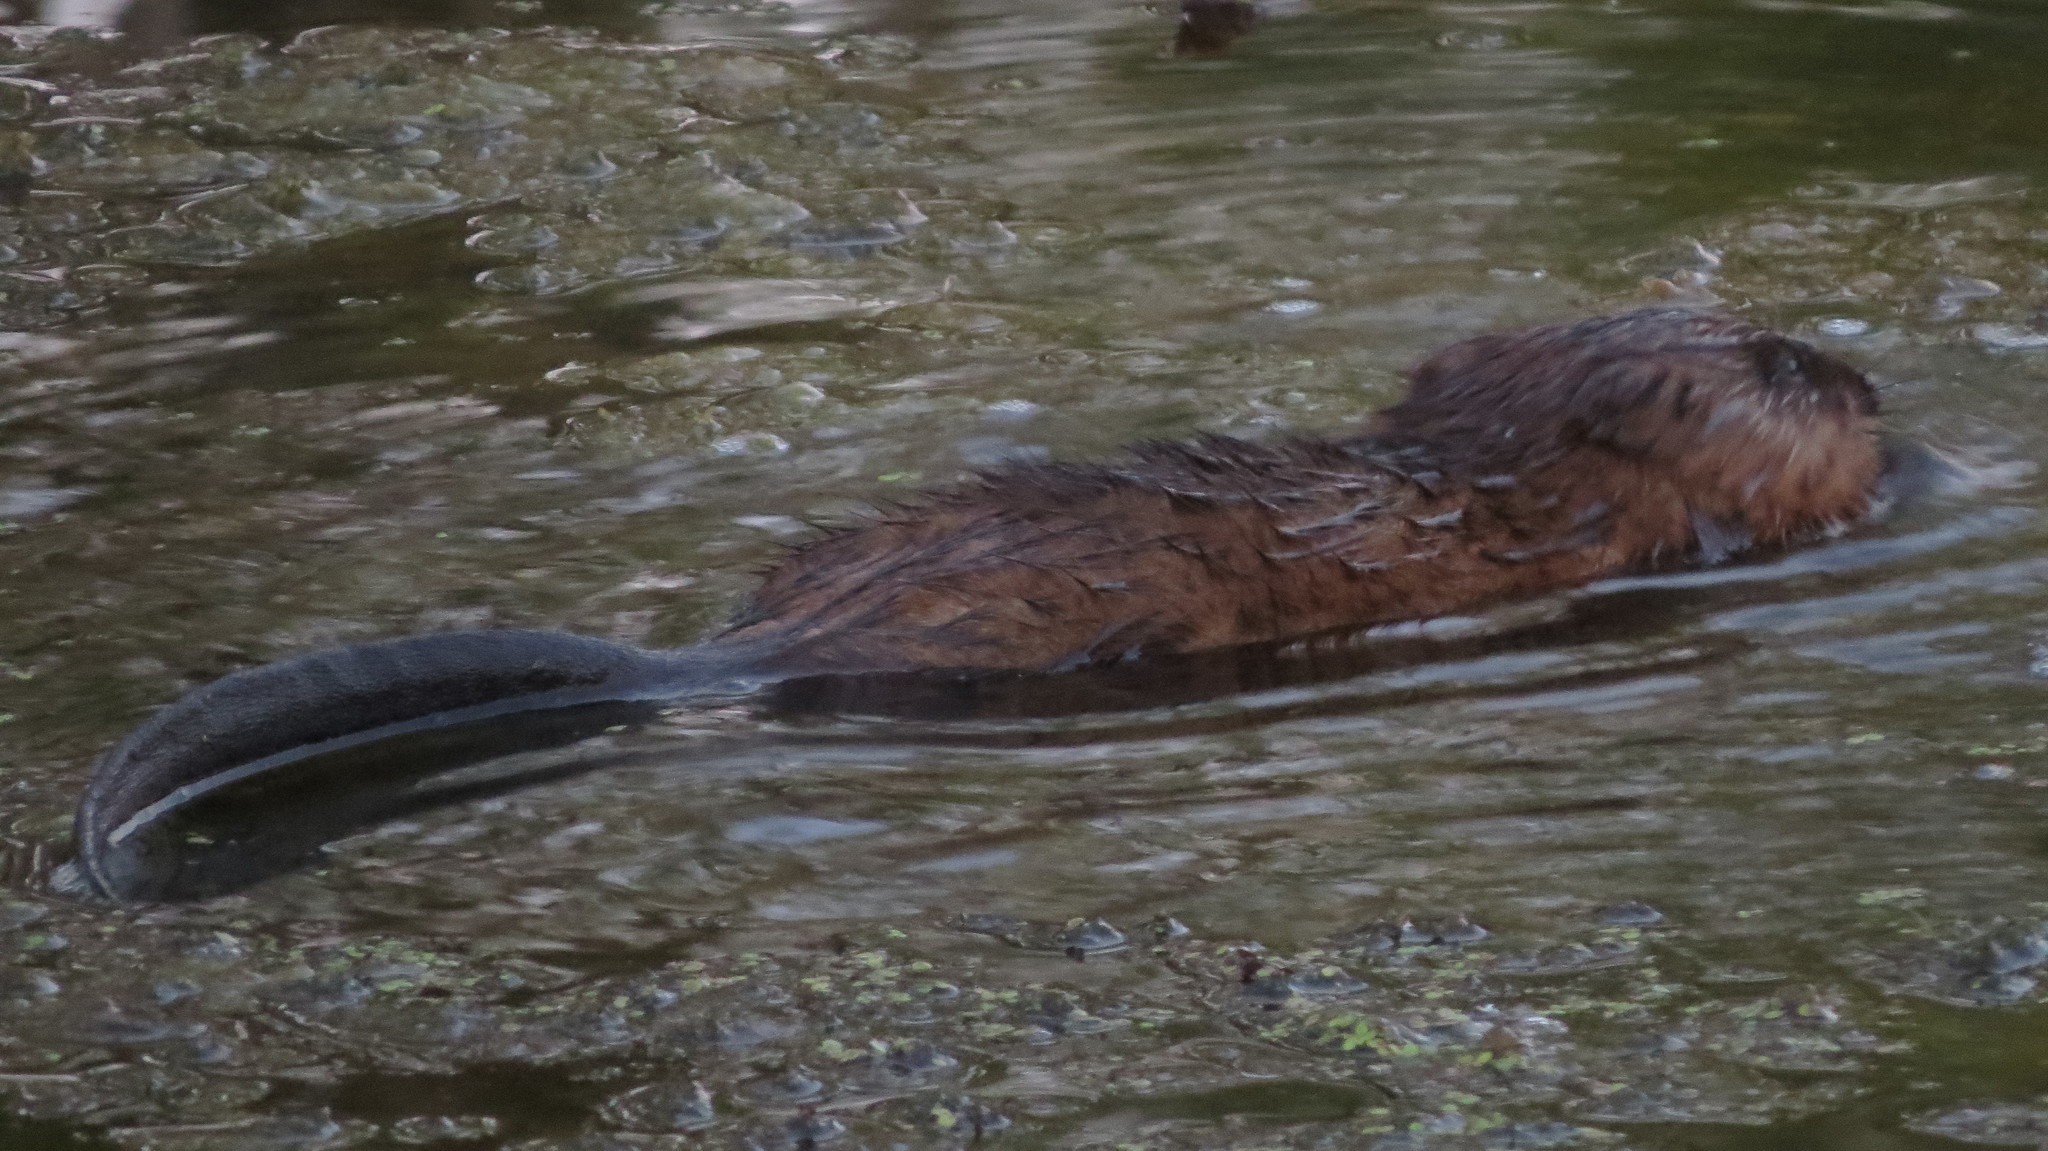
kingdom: Animalia
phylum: Chordata
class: Mammalia
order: Rodentia
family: Cricetidae
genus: Ondatra
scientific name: Ondatra zibethicus
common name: Muskrat
